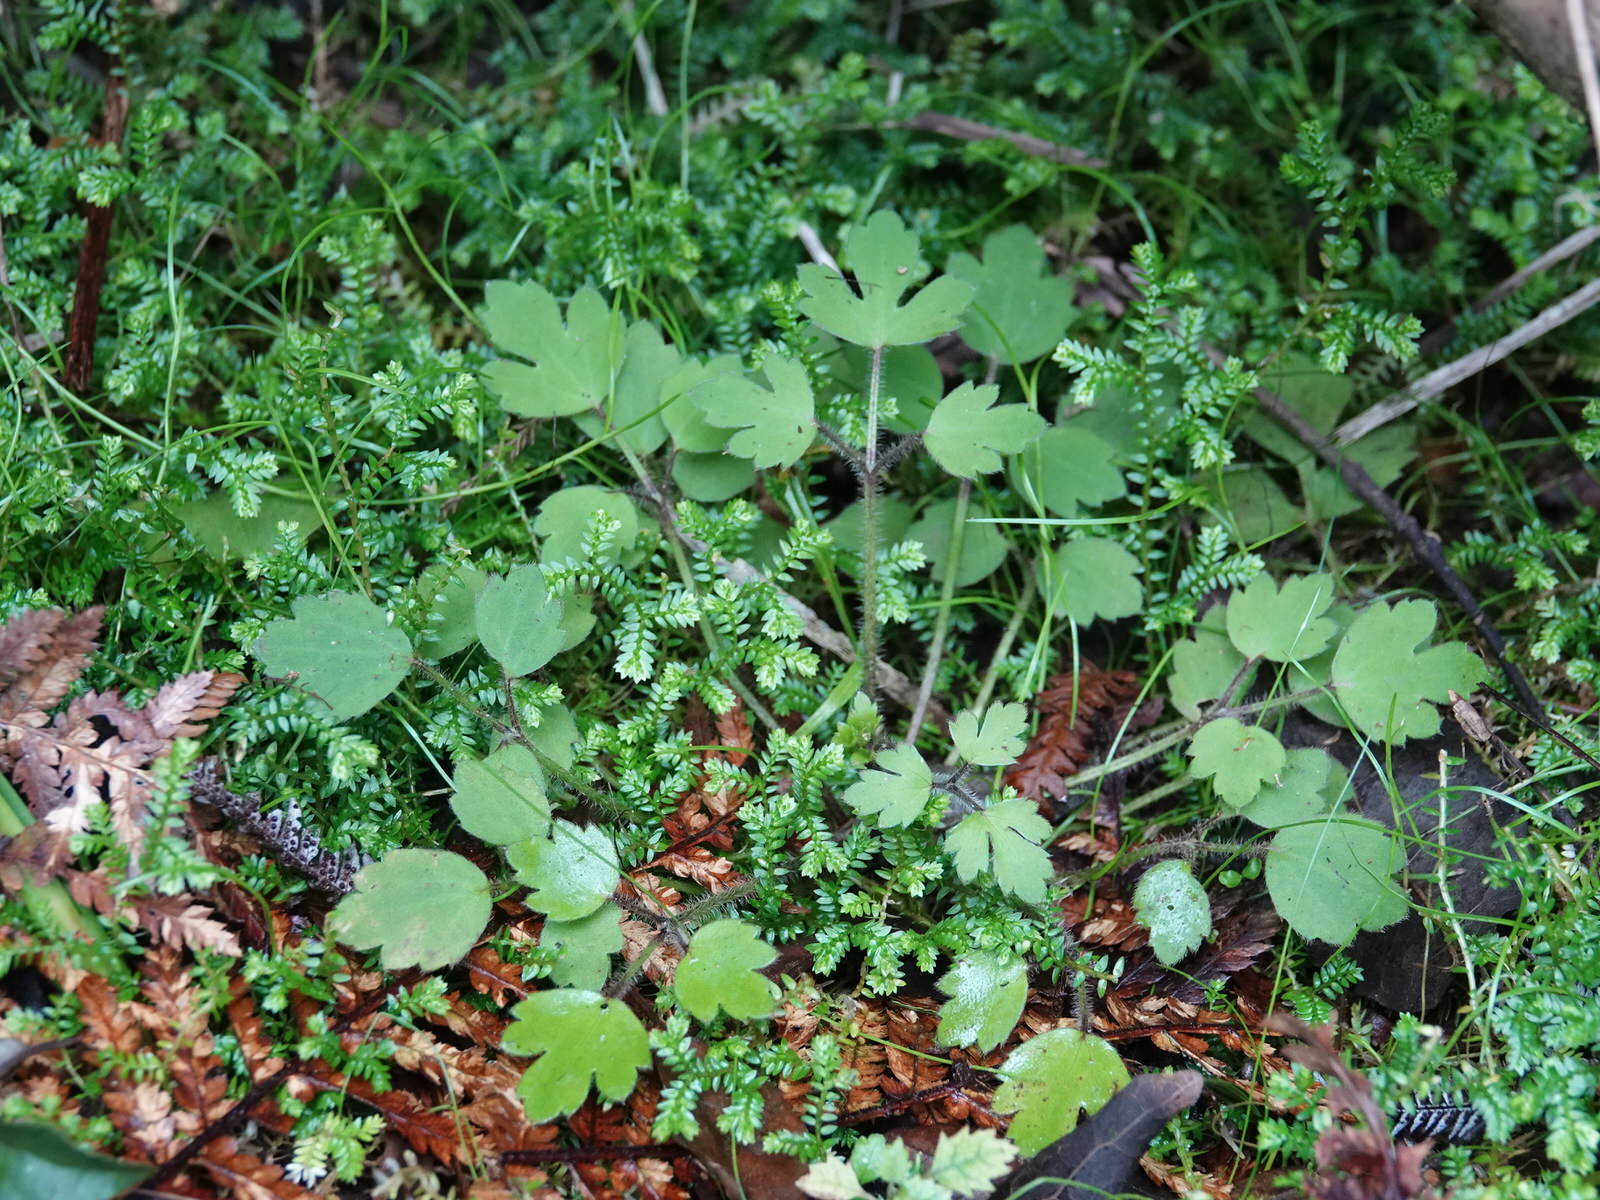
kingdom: Plantae
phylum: Tracheophyta
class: Magnoliopsida
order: Ranunculales
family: Ranunculaceae
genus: Ranunculus
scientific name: Ranunculus reflexus
